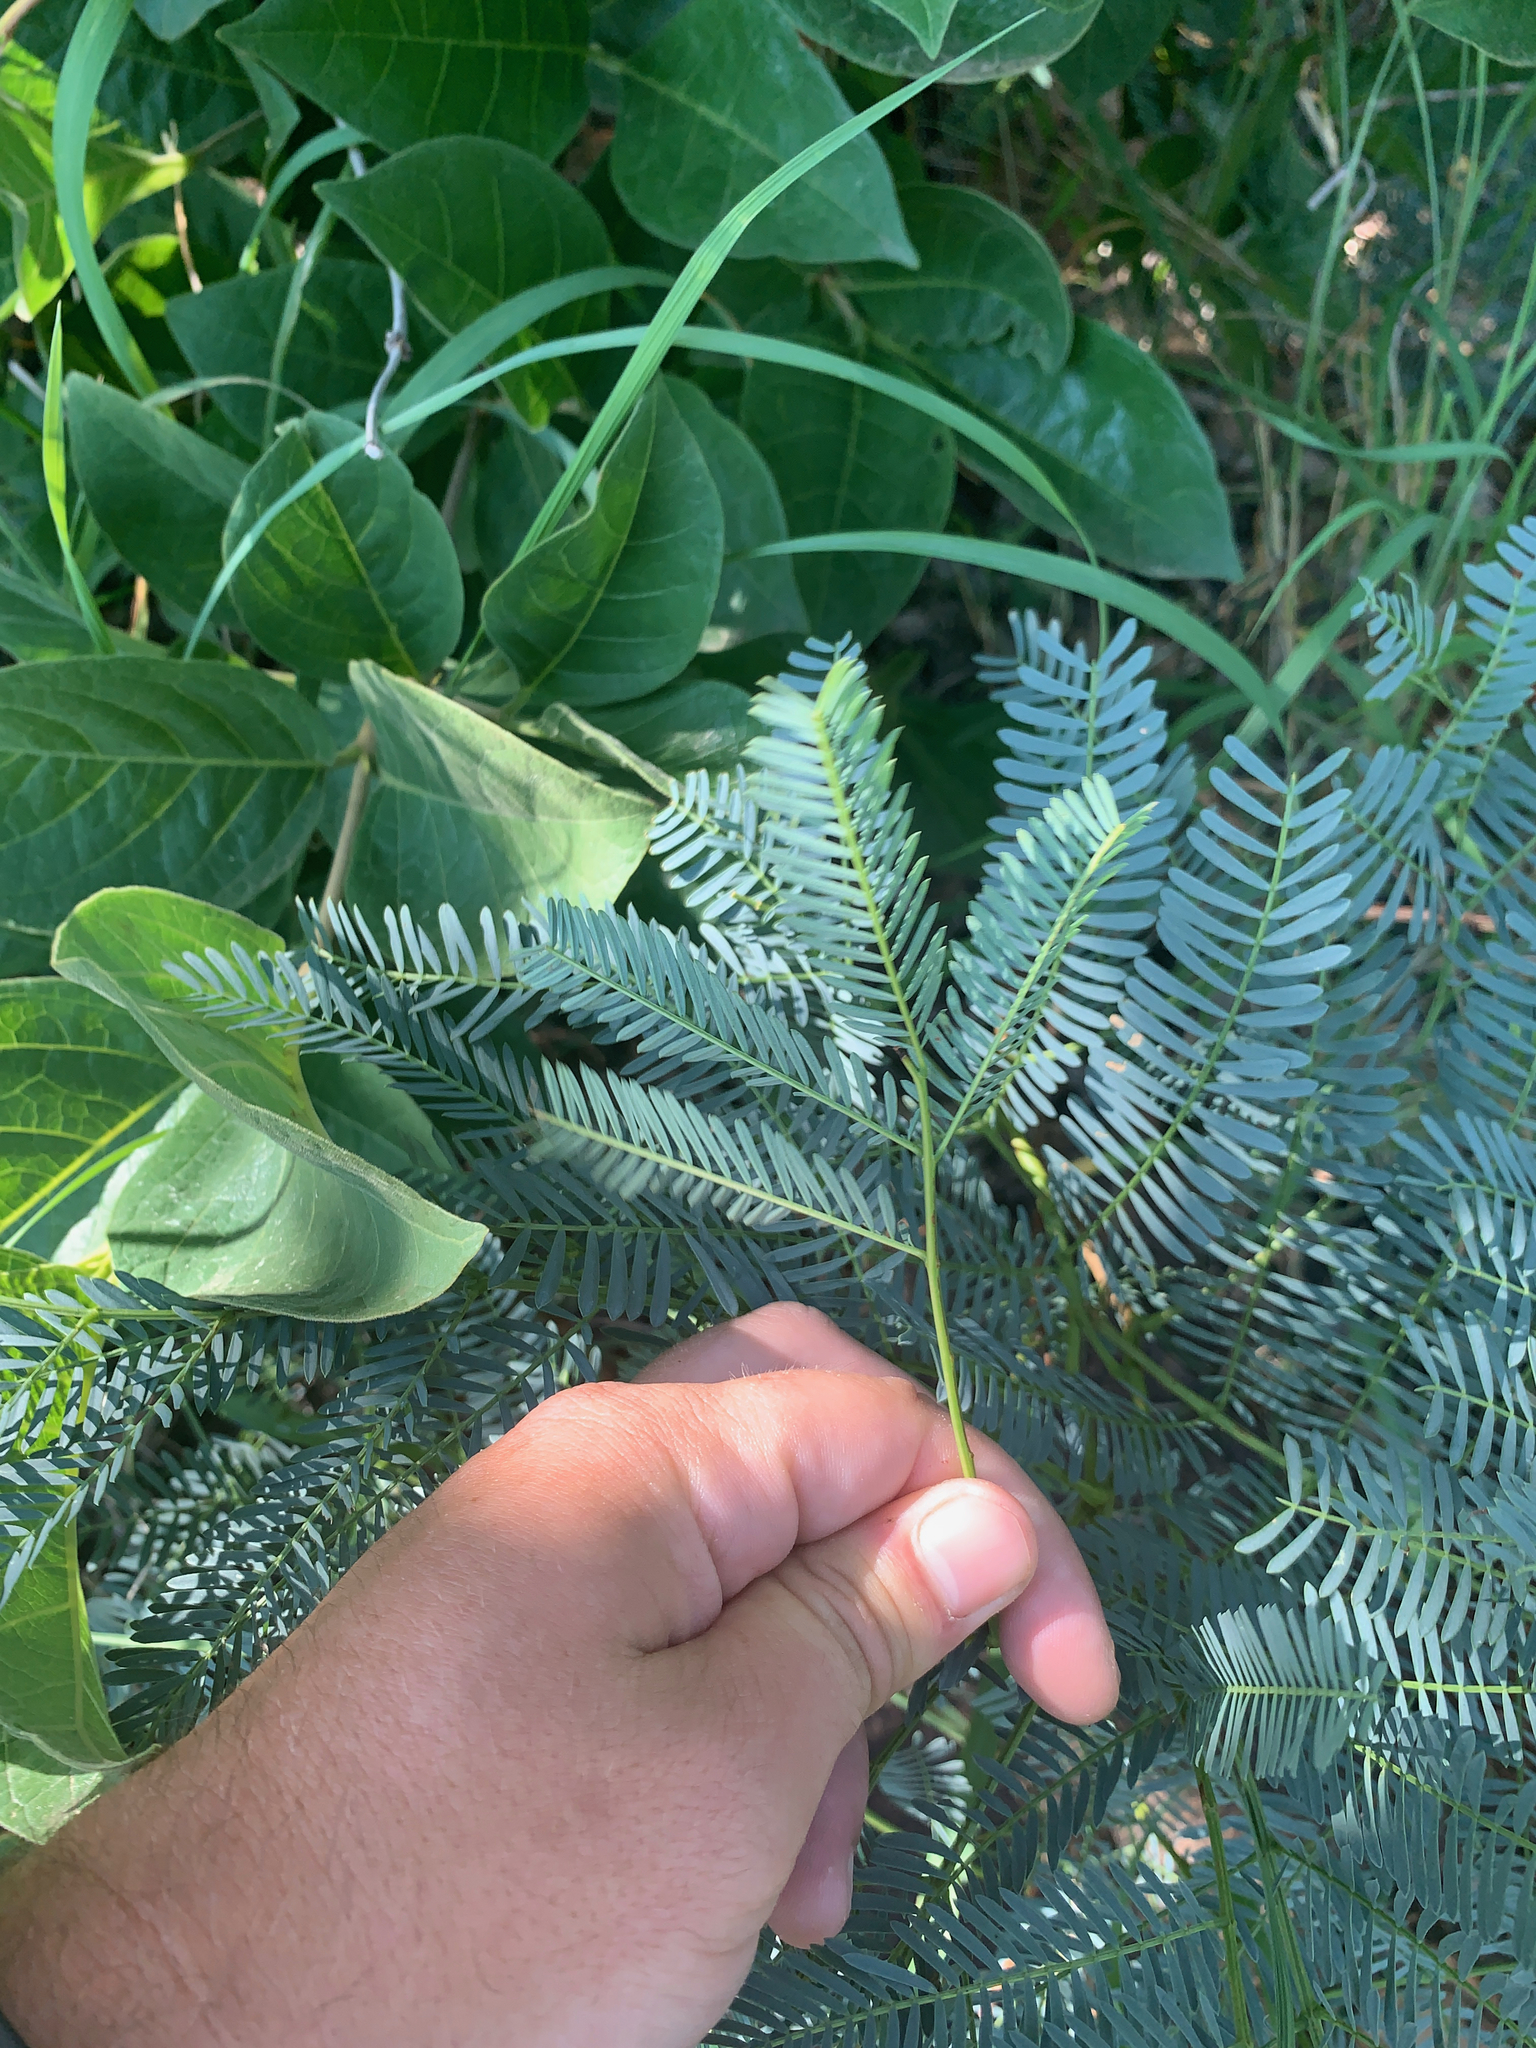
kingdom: Plantae
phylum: Tracheophyta
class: Magnoliopsida
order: Fabales
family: Fabaceae
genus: Elephantorrhiza
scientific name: Elephantorrhiza elephantina
